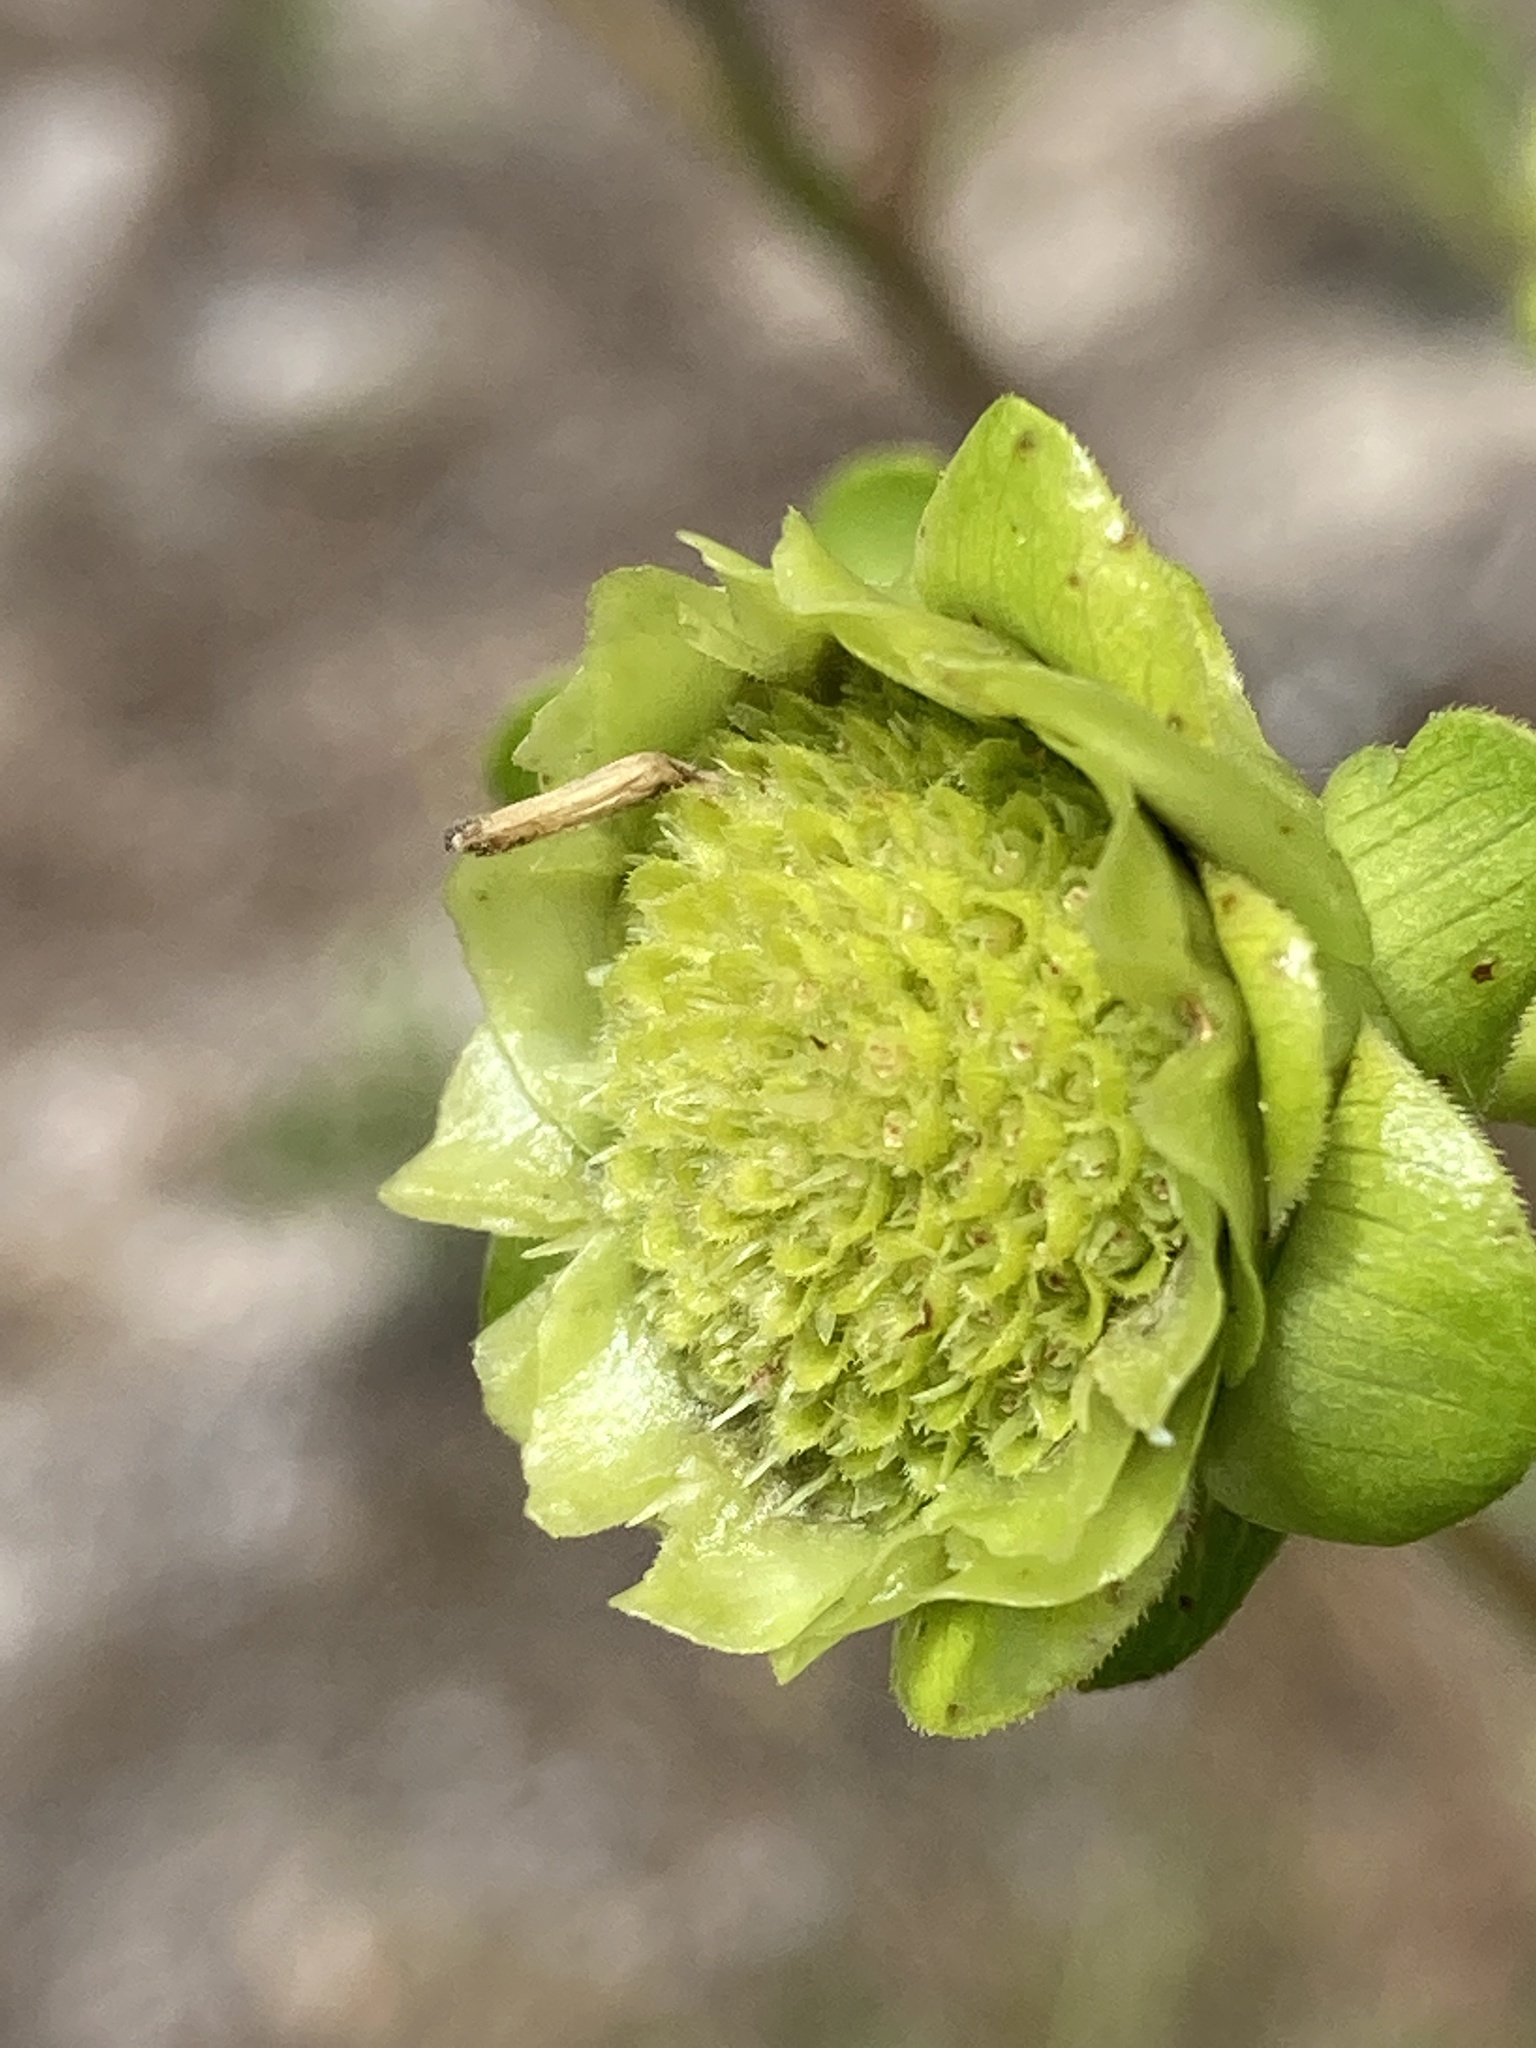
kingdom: Plantae
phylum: Tracheophyta
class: Magnoliopsida
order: Asterales
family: Asteraceae
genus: Silphium
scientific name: Silphium compositum
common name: Lesser basal-leaf rosinweed
